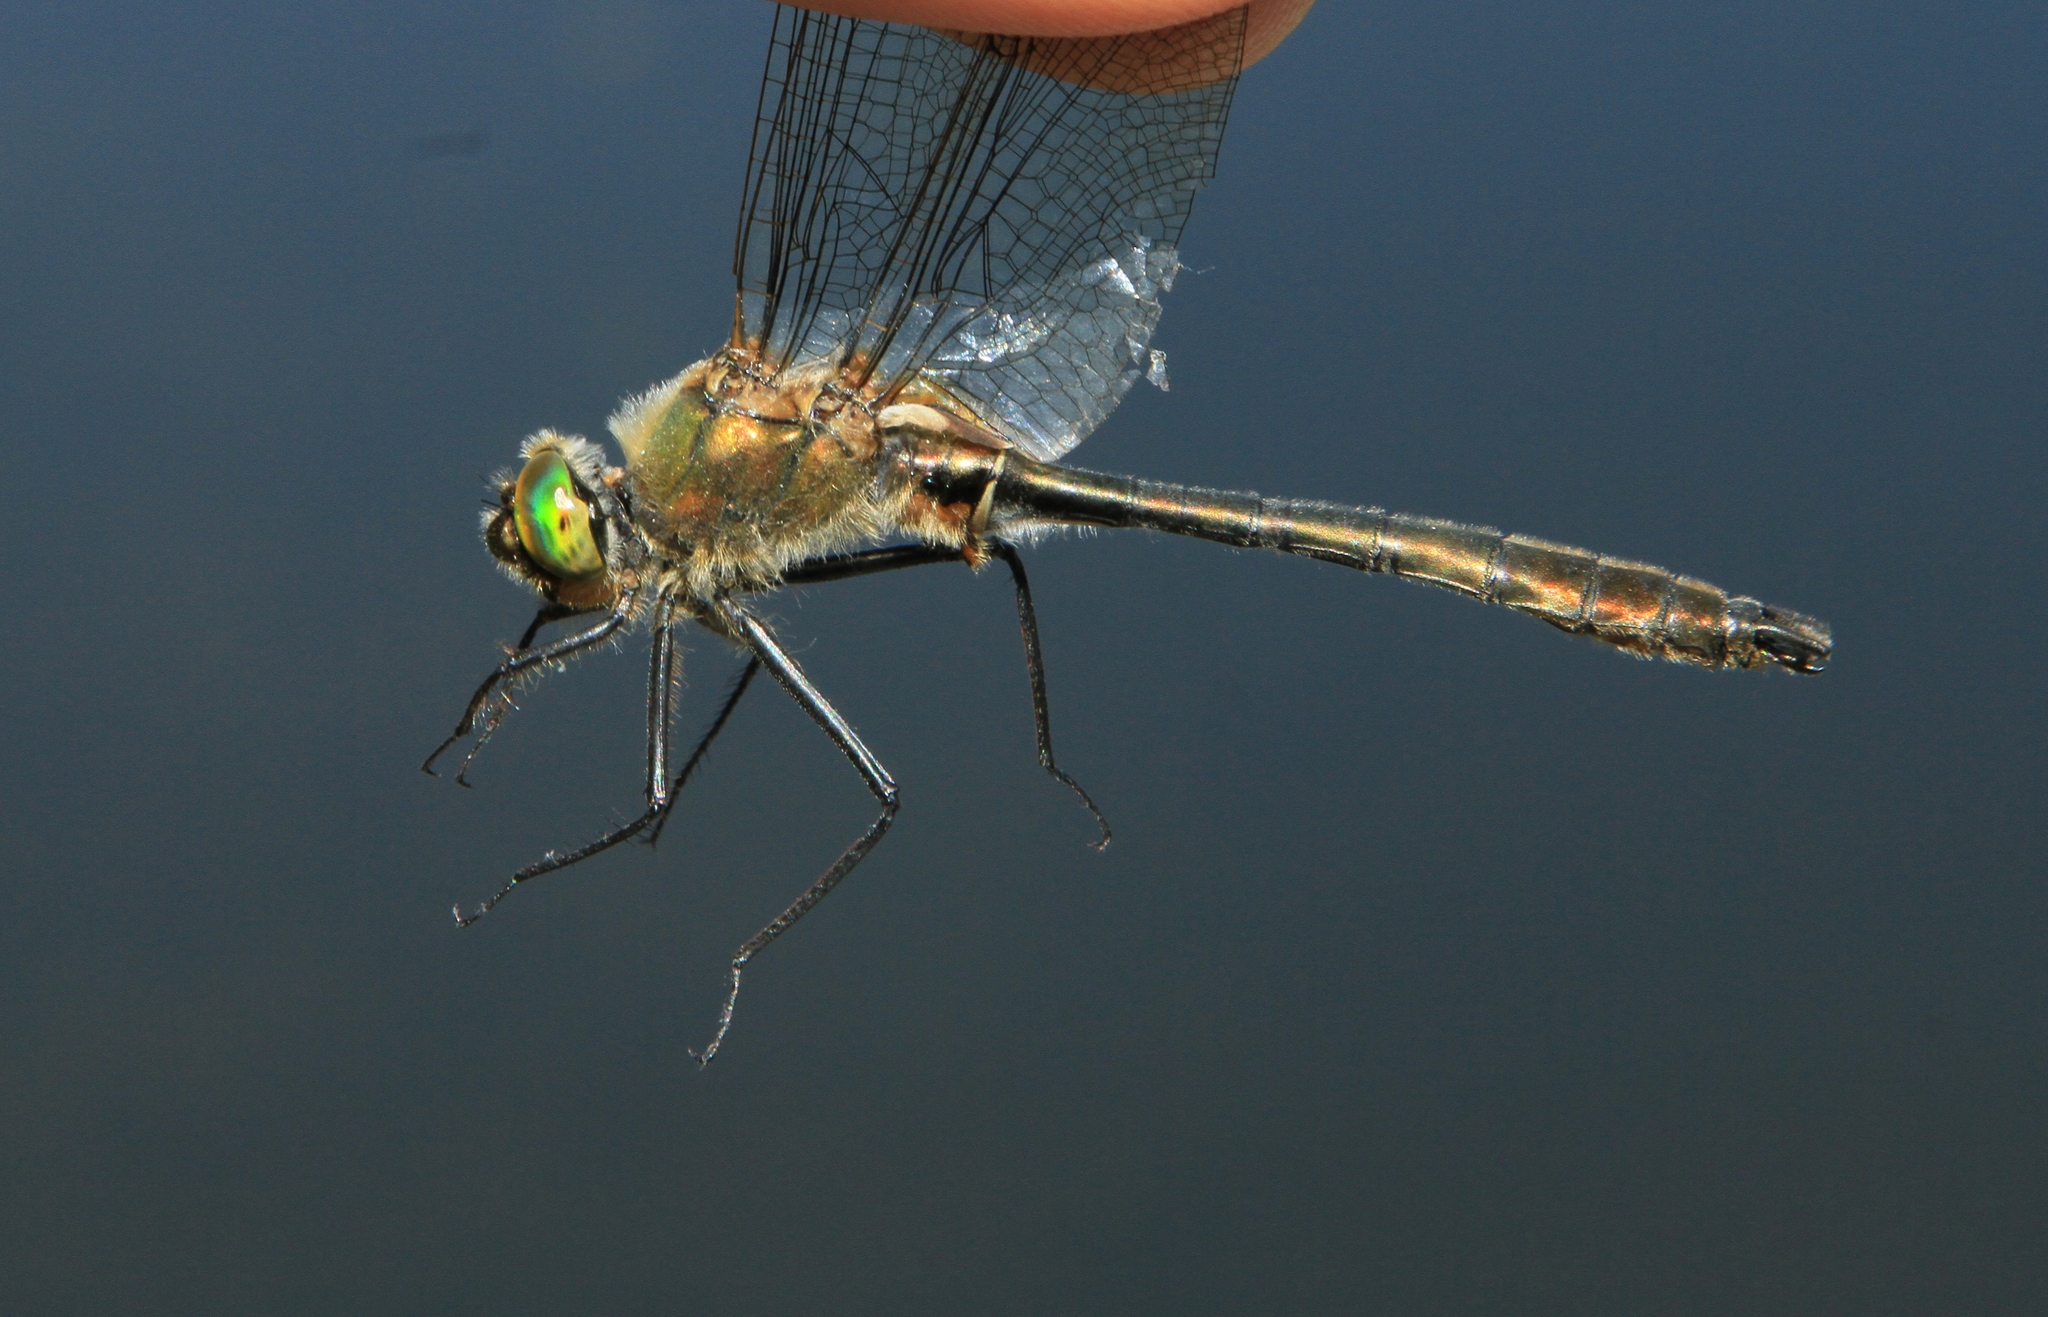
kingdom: Animalia
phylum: Arthropoda
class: Insecta
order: Odonata
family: Corduliidae
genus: Cordulia
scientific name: Cordulia aenea
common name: Downy emerald
